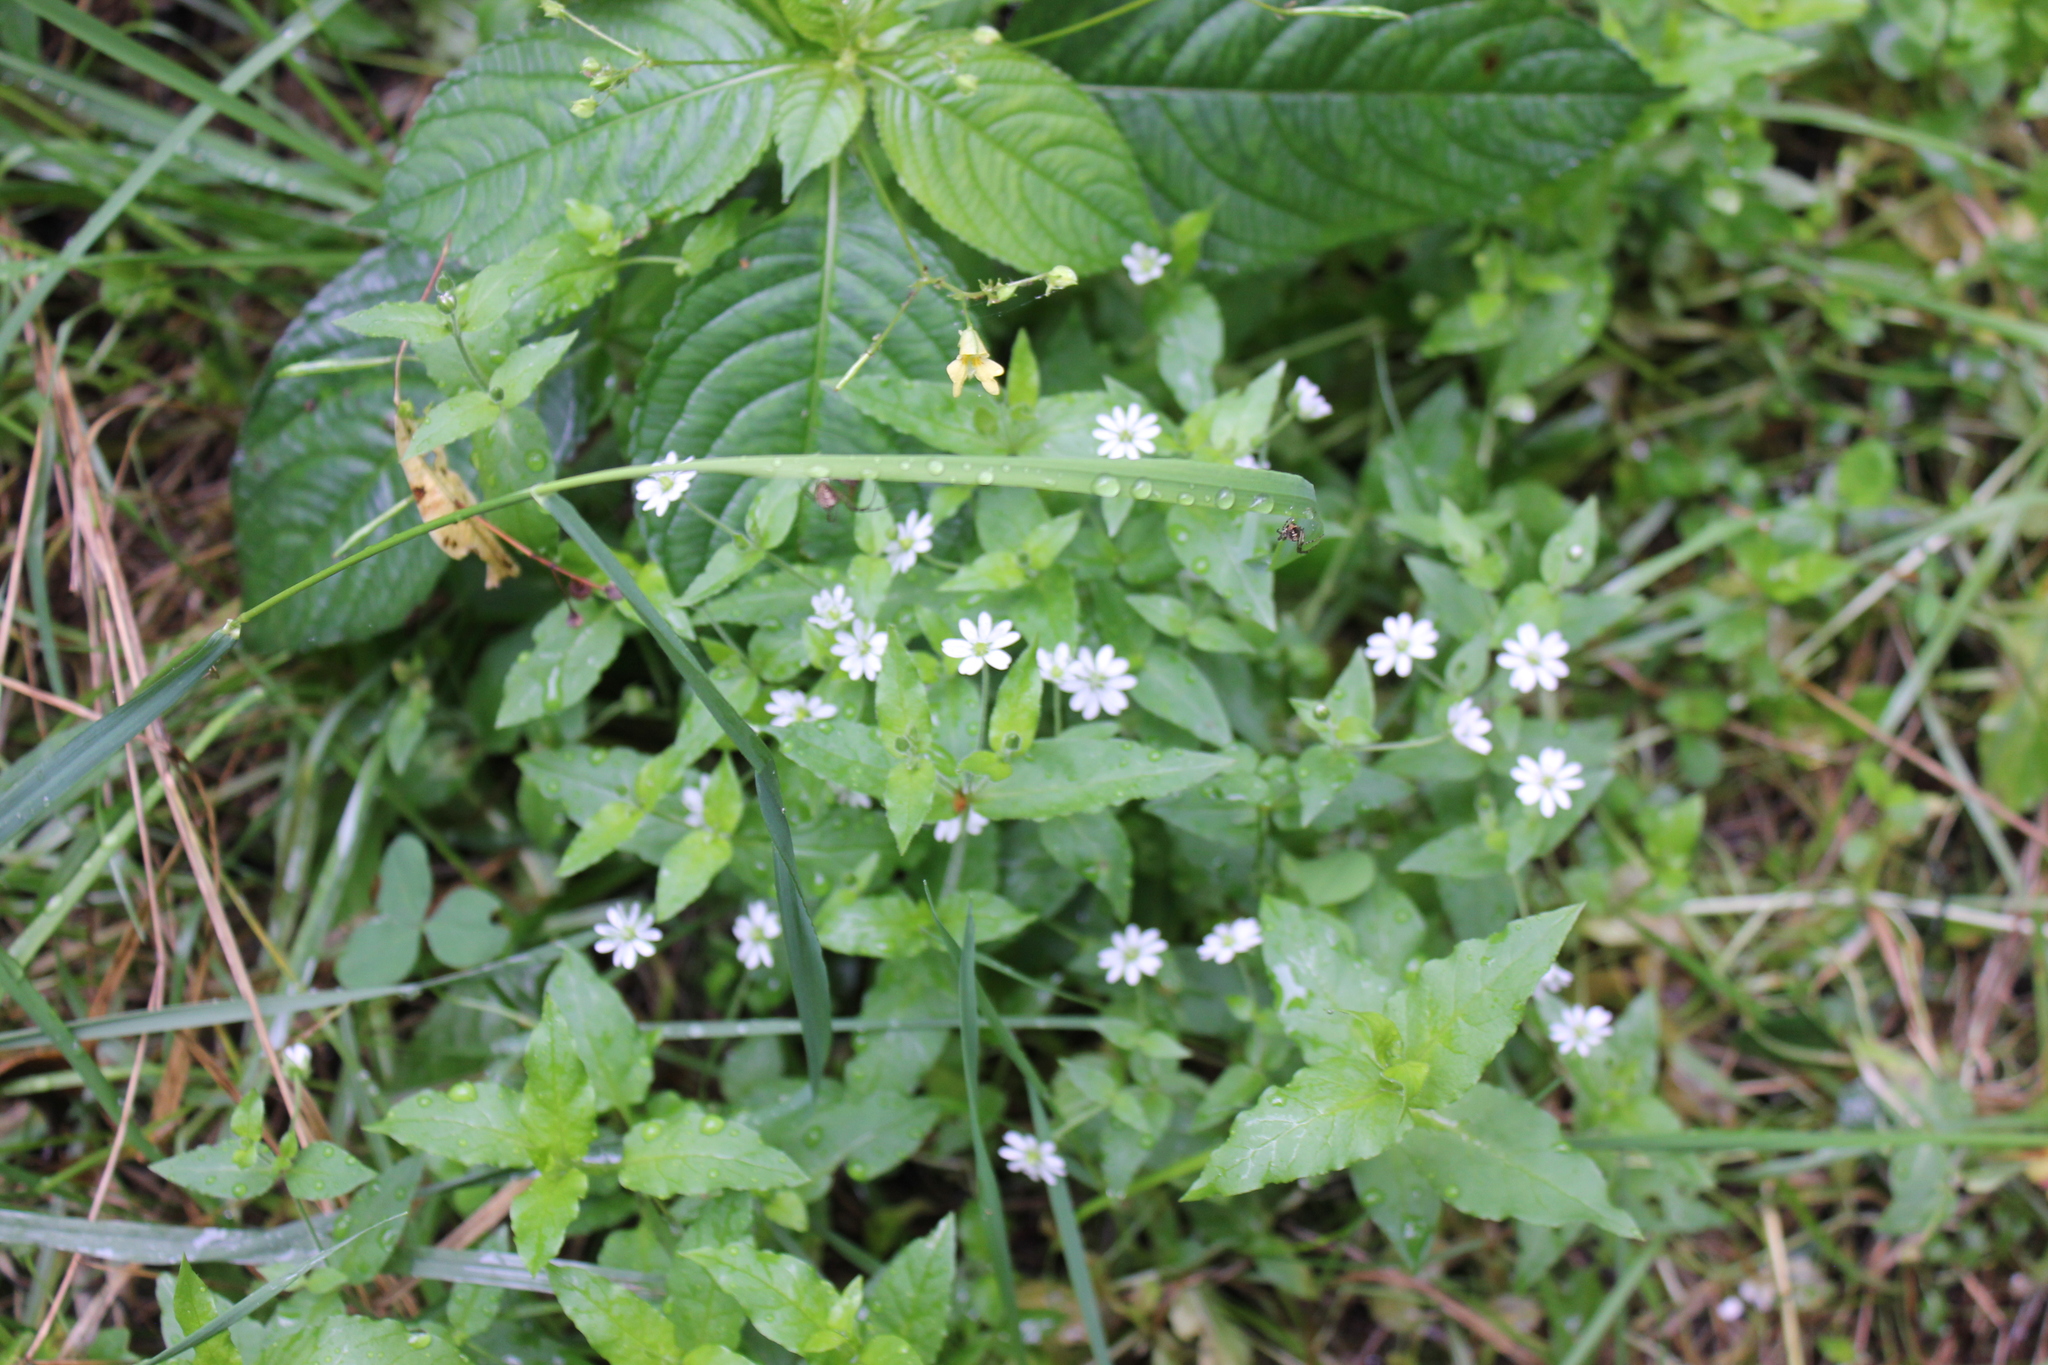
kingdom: Plantae
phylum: Tracheophyta
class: Magnoliopsida
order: Caryophyllales
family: Caryophyllaceae
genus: Stellaria
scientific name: Stellaria aquatica
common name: Water chickweed
